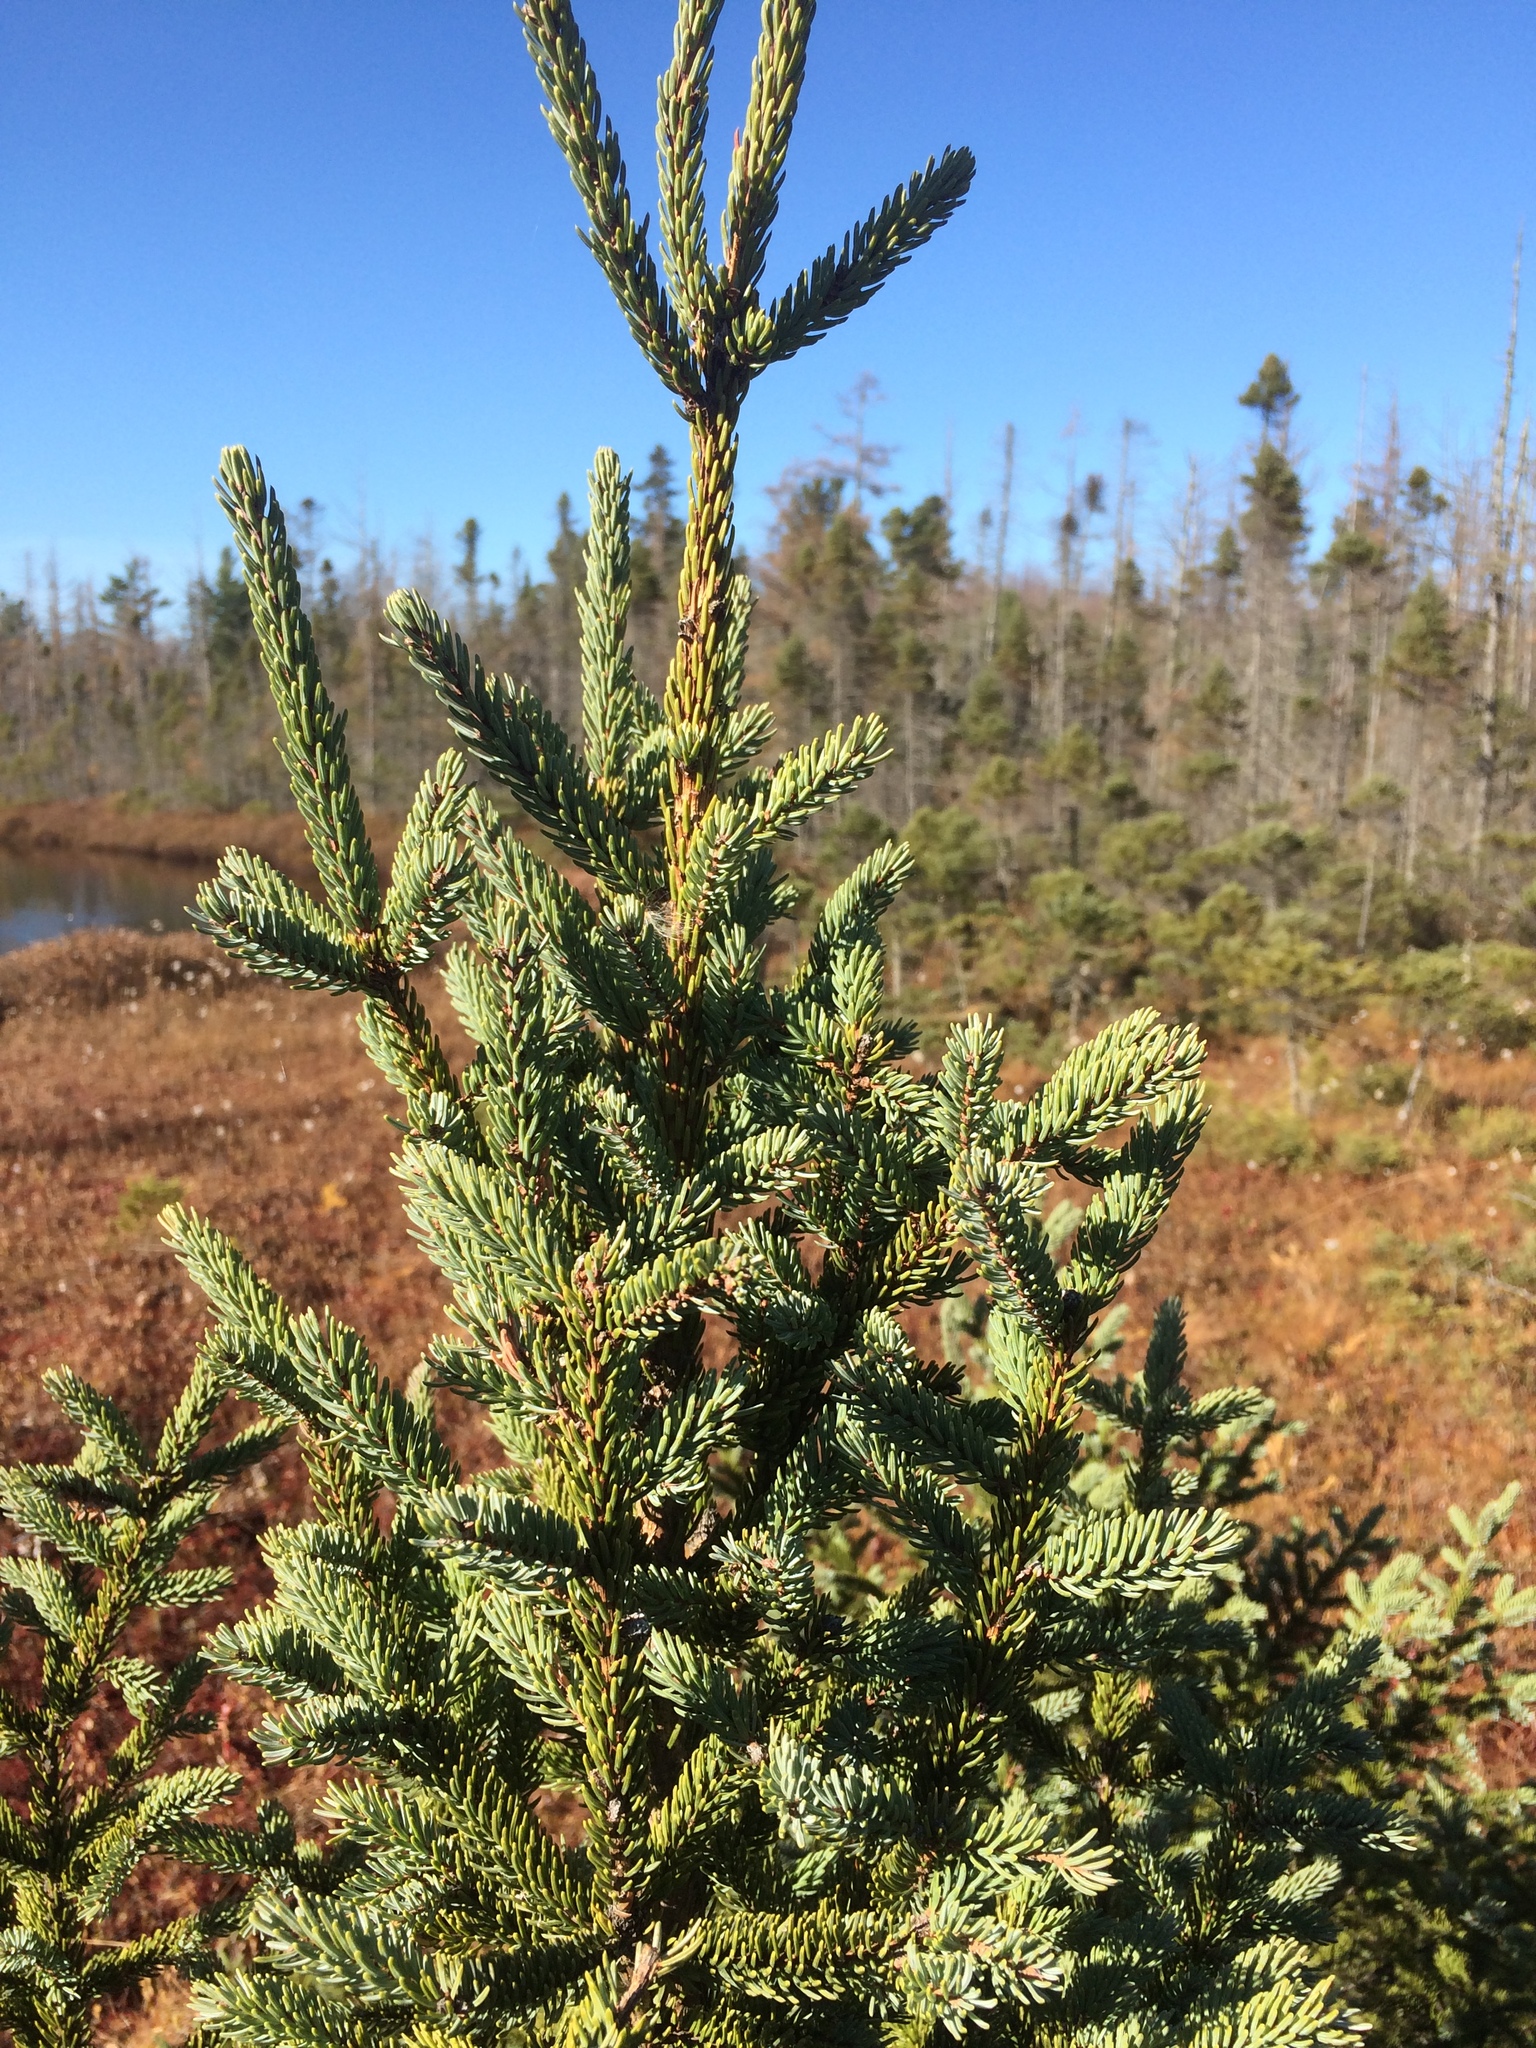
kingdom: Plantae
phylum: Tracheophyta
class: Pinopsida
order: Pinales
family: Pinaceae
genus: Picea
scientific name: Picea mariana
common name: Black spruce
